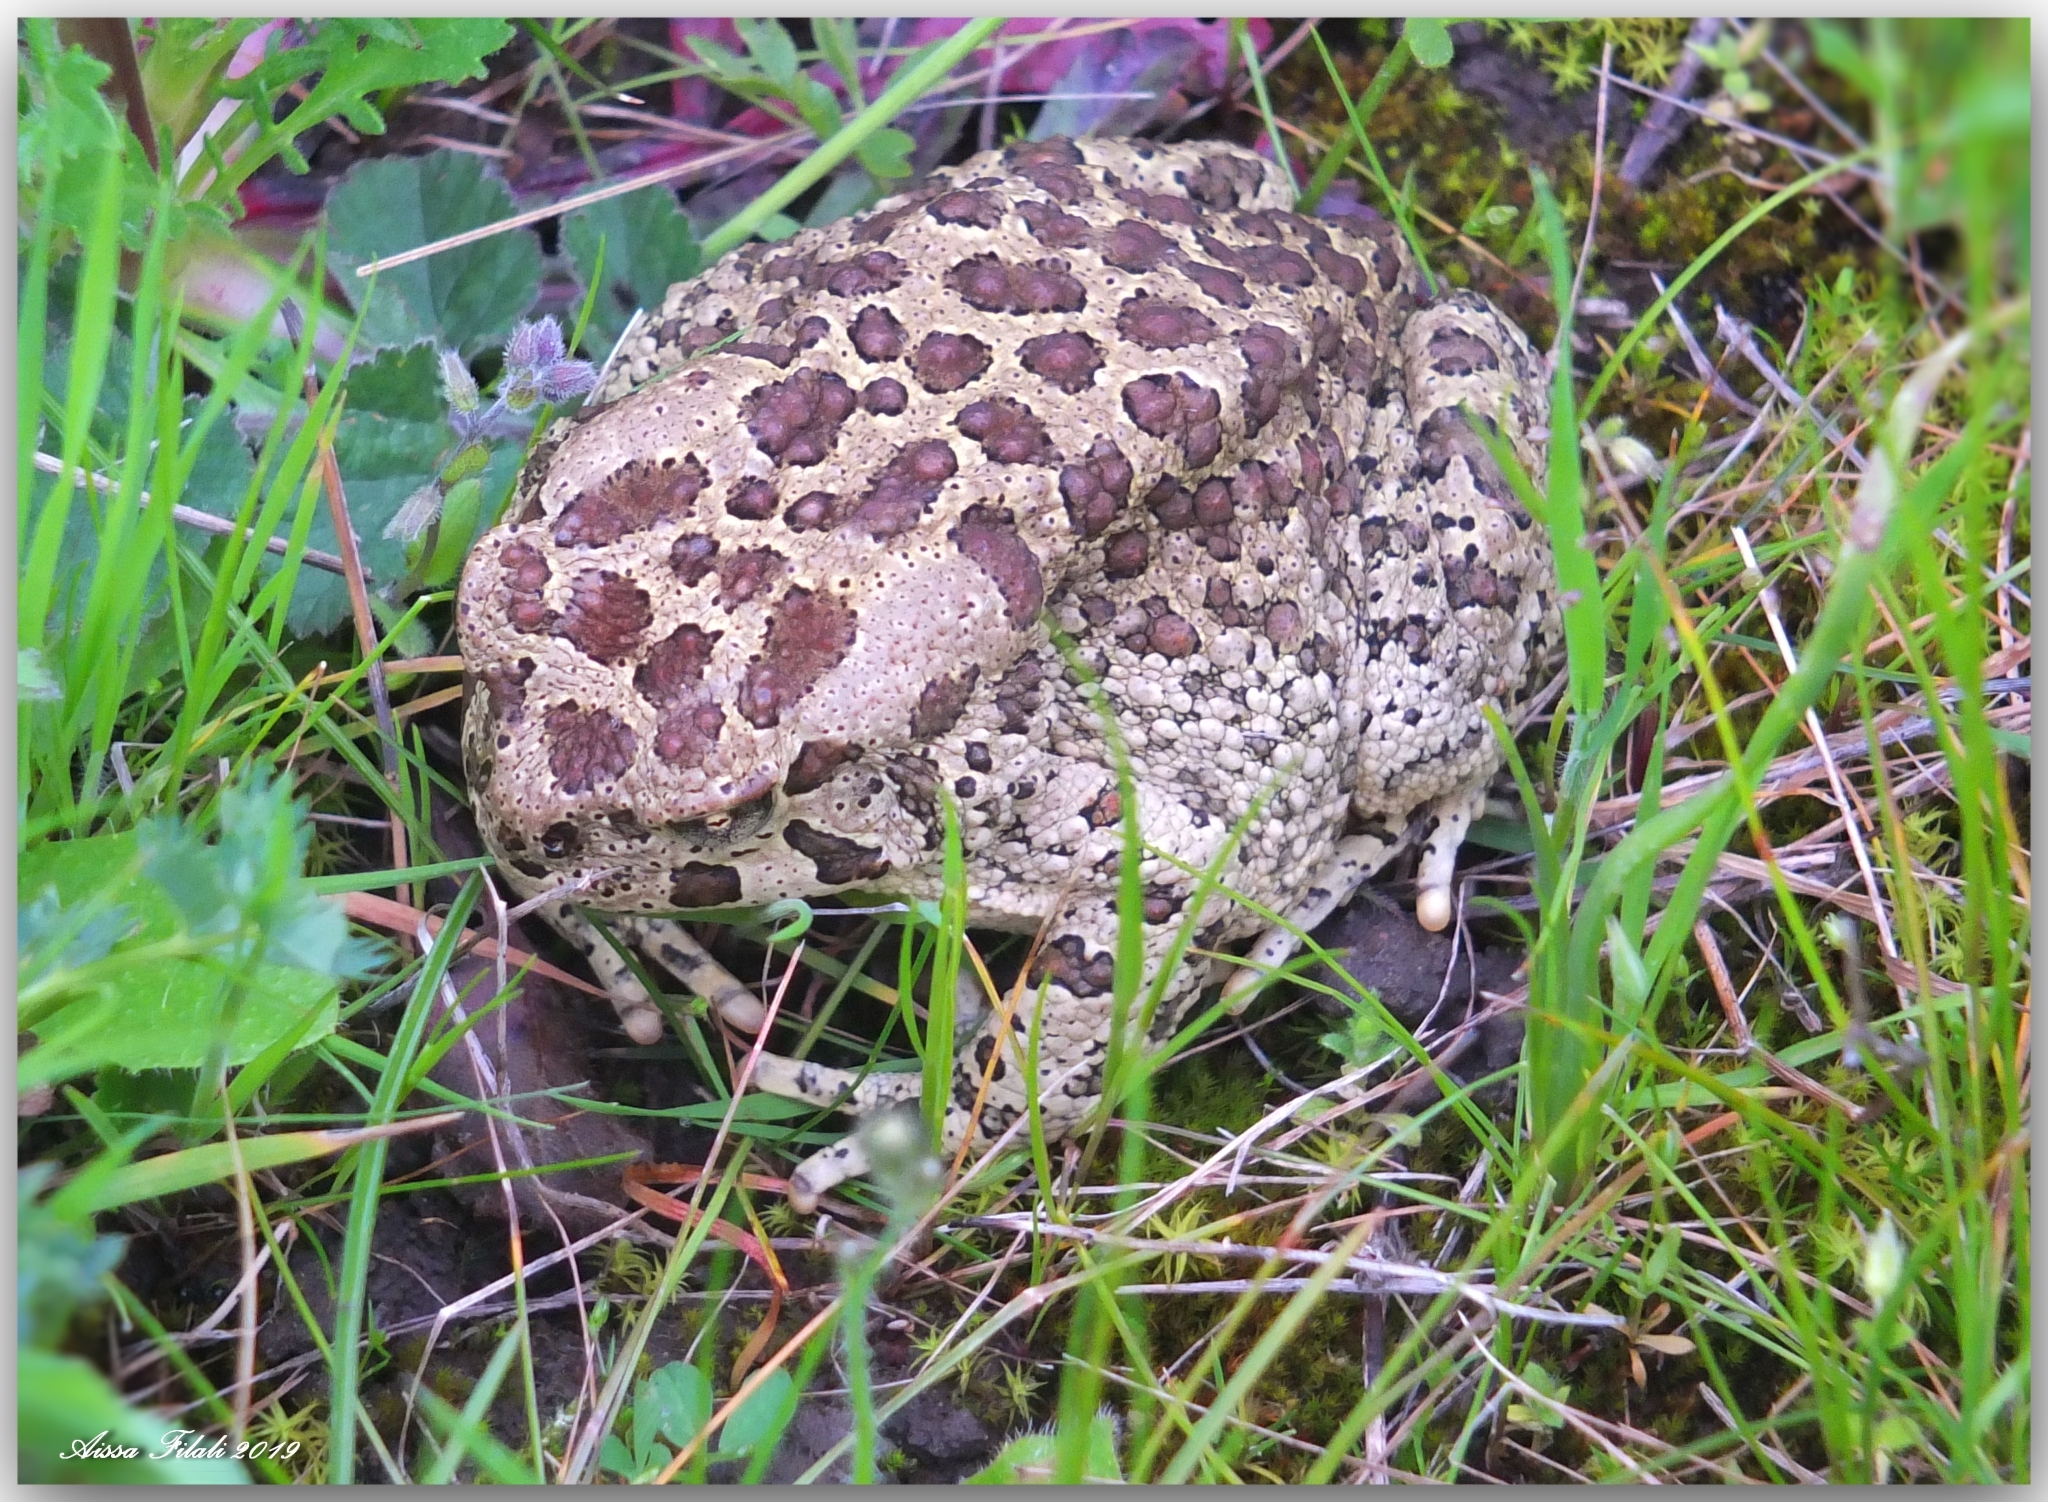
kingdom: Animalia
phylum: Chordata
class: Amphibia
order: Anura
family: Bufonidae
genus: Sclerophrys
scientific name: Sclerophrys mauritanica
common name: Berber toad
